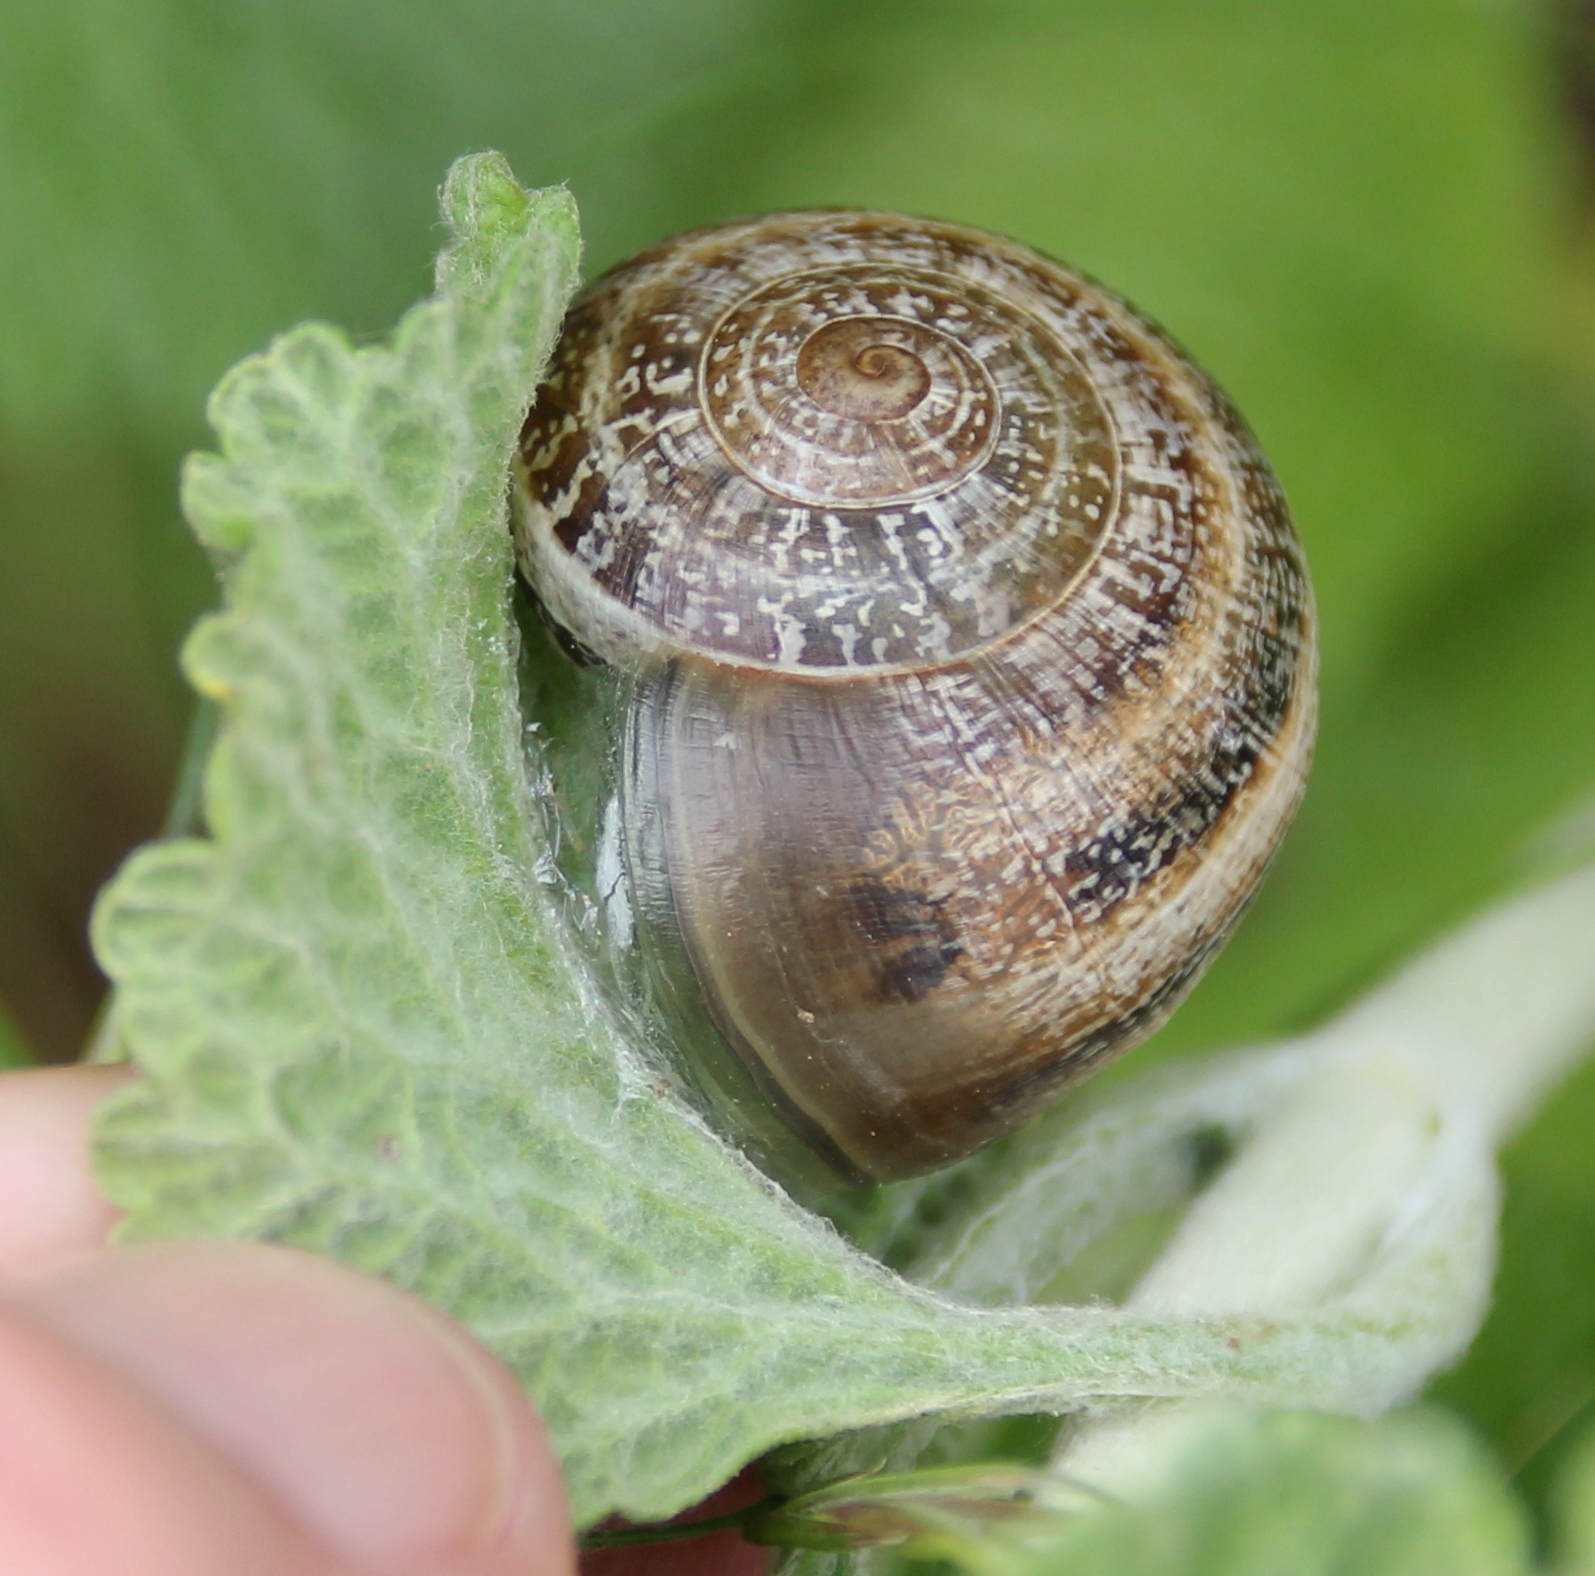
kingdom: Animalia
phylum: Mollusca
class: Gastropoda
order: Stylommatophora
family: Helicidae
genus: Otala
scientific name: Otala lactea
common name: Milk snail
